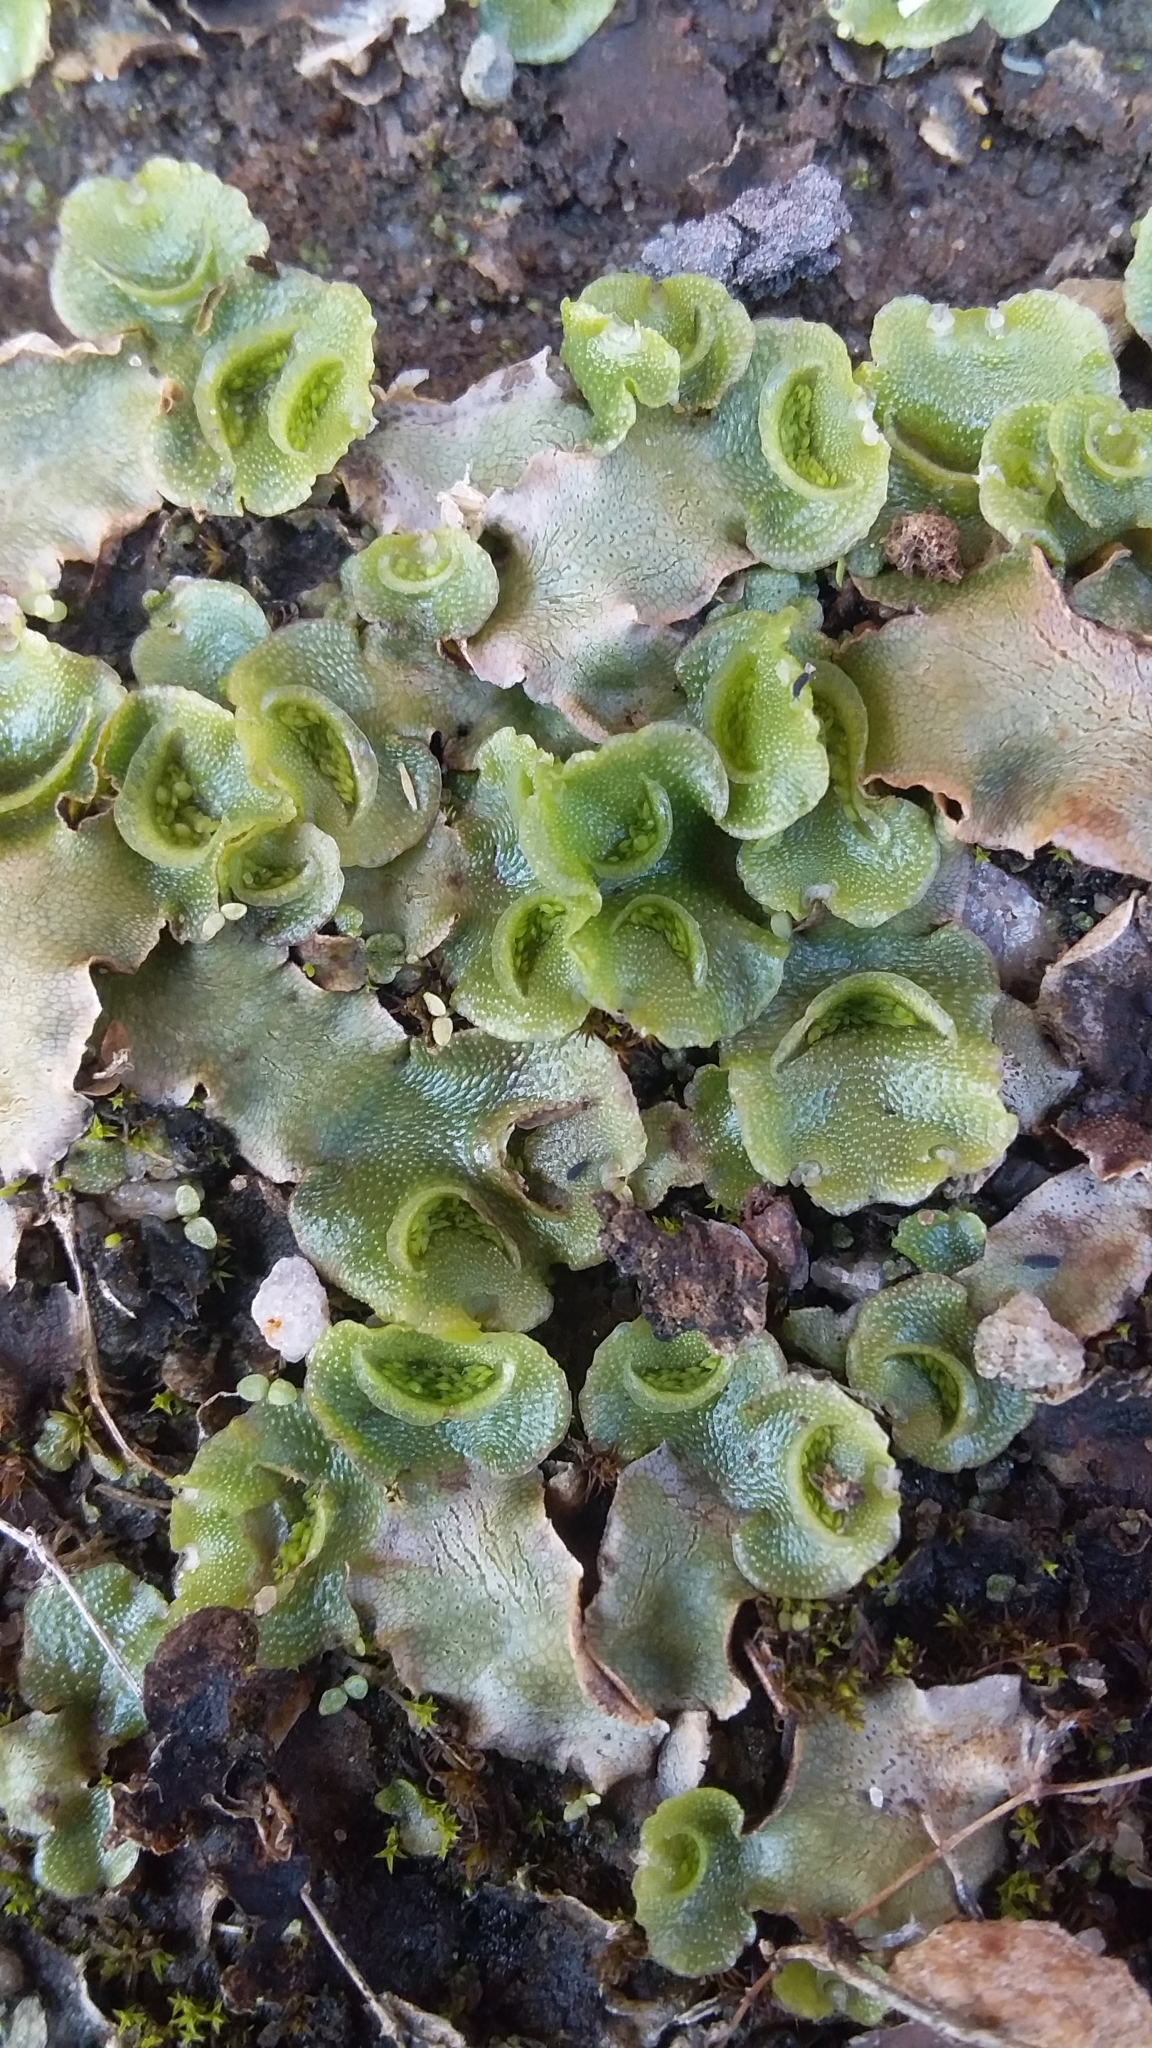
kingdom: Plantae
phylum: Marchantiophyta
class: Marchantiopsida
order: Lunulariales
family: Lunulariaceae
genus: Lunularia
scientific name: Lunularia cruciata
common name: Crescent-cup liverwort
